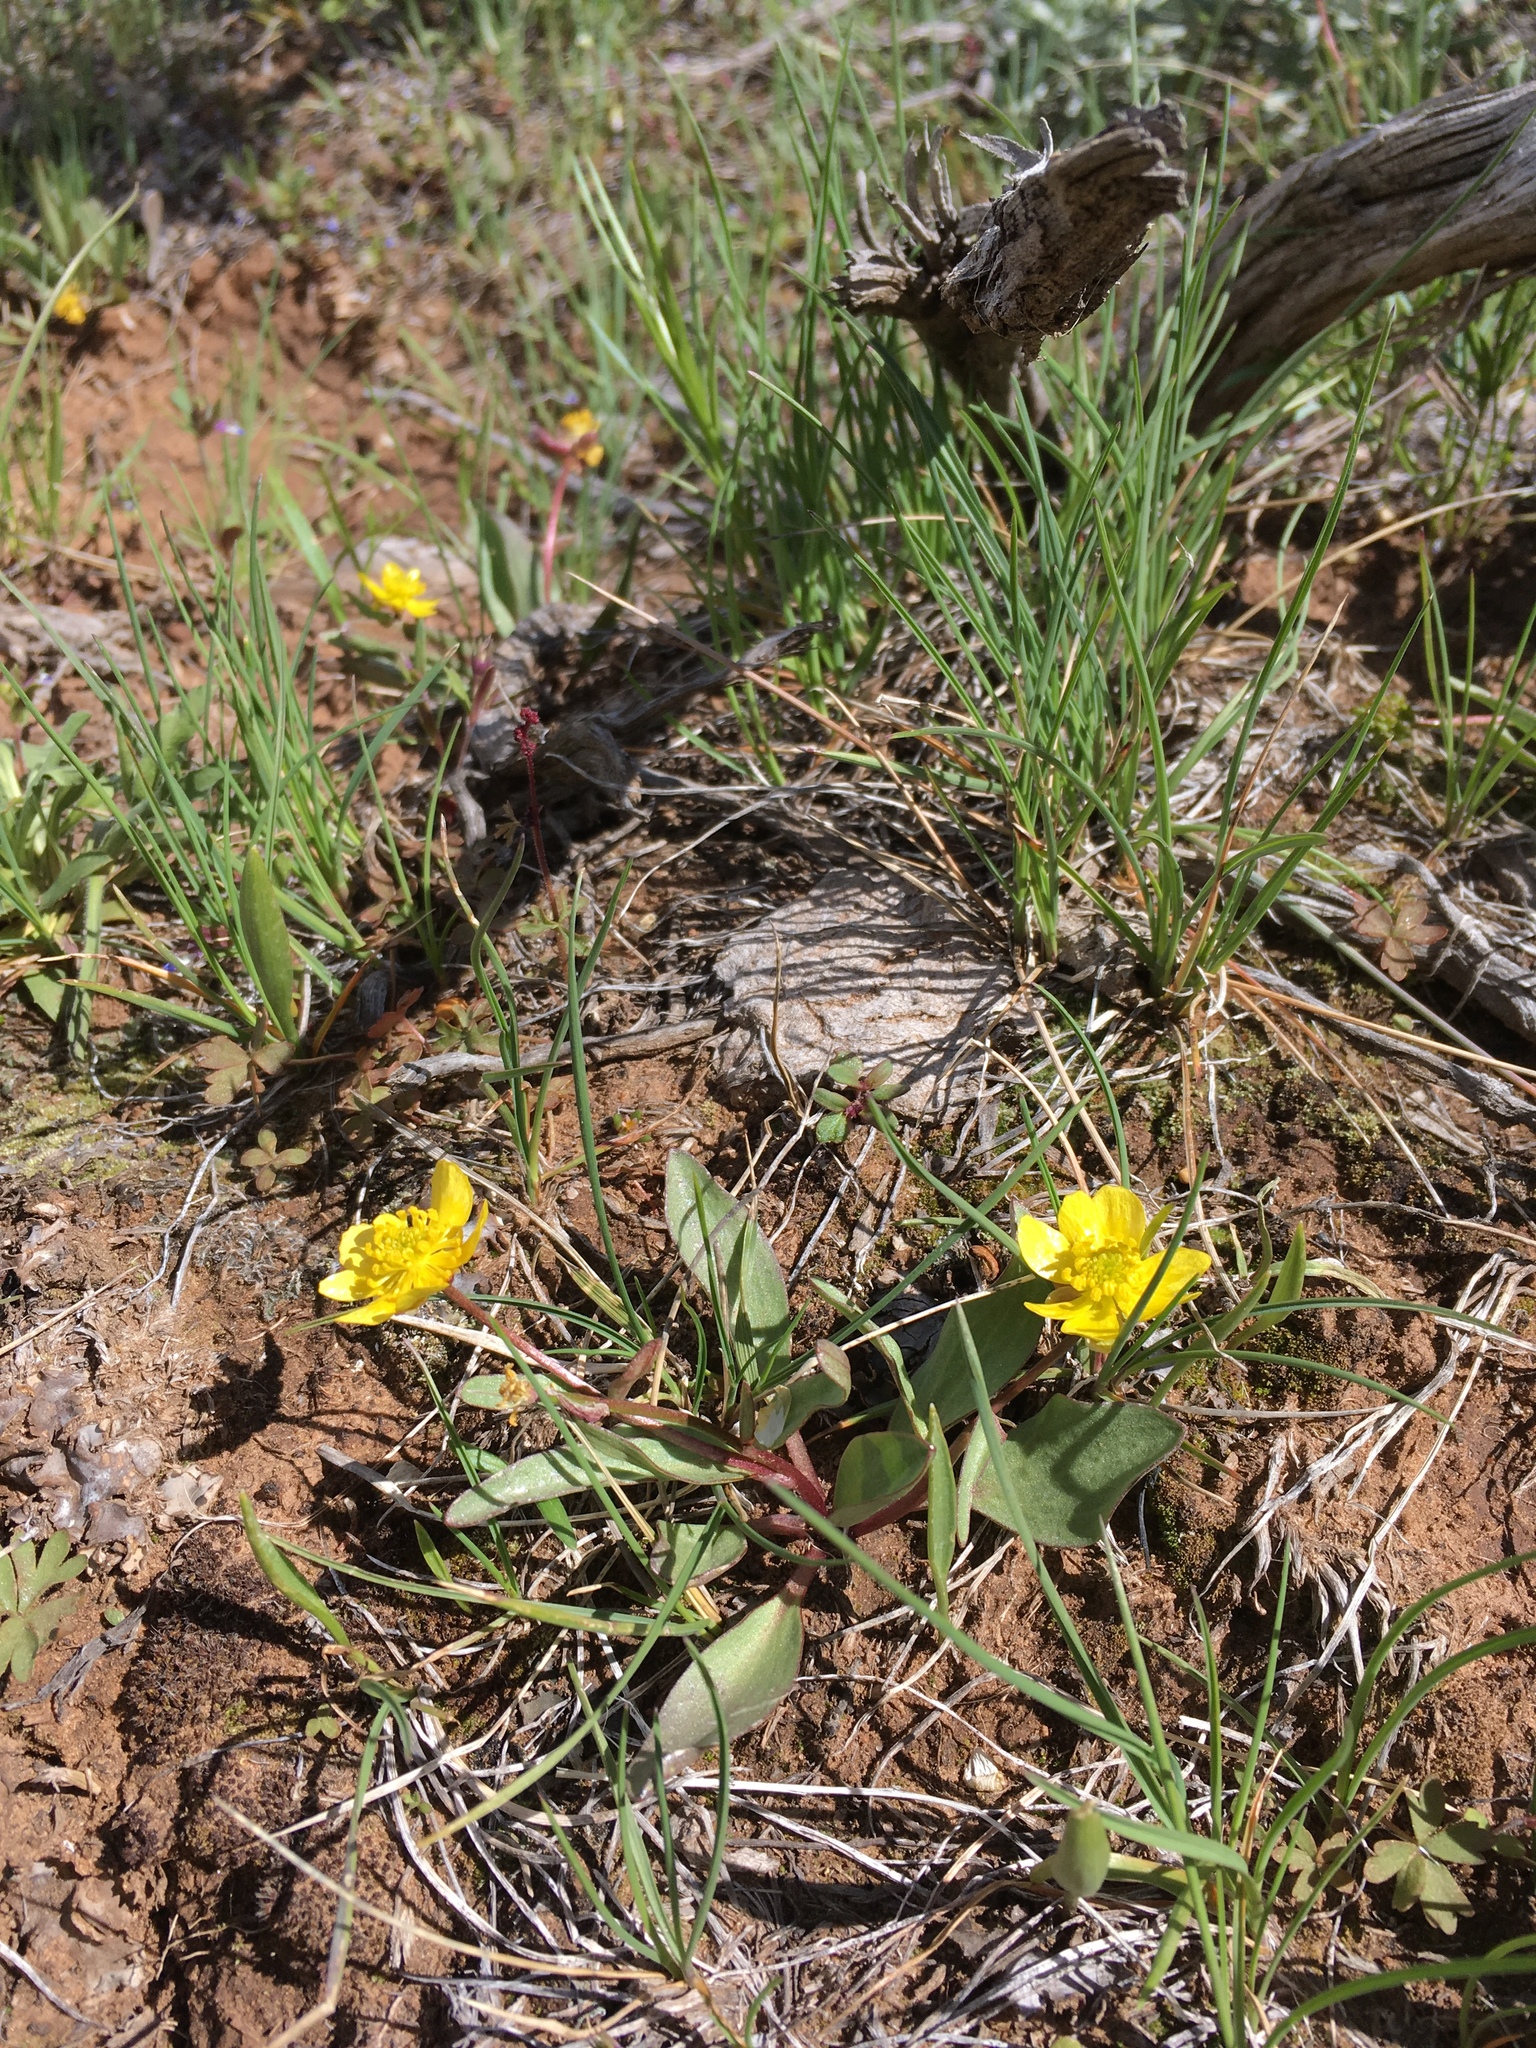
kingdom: Plantae
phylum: Tracheophyta
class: Magnoliopsida
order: Ranunculales
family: Ranunculaceae
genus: Ranunculus
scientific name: Ranunculus glaberrimus
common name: Sagebrush buttercup
